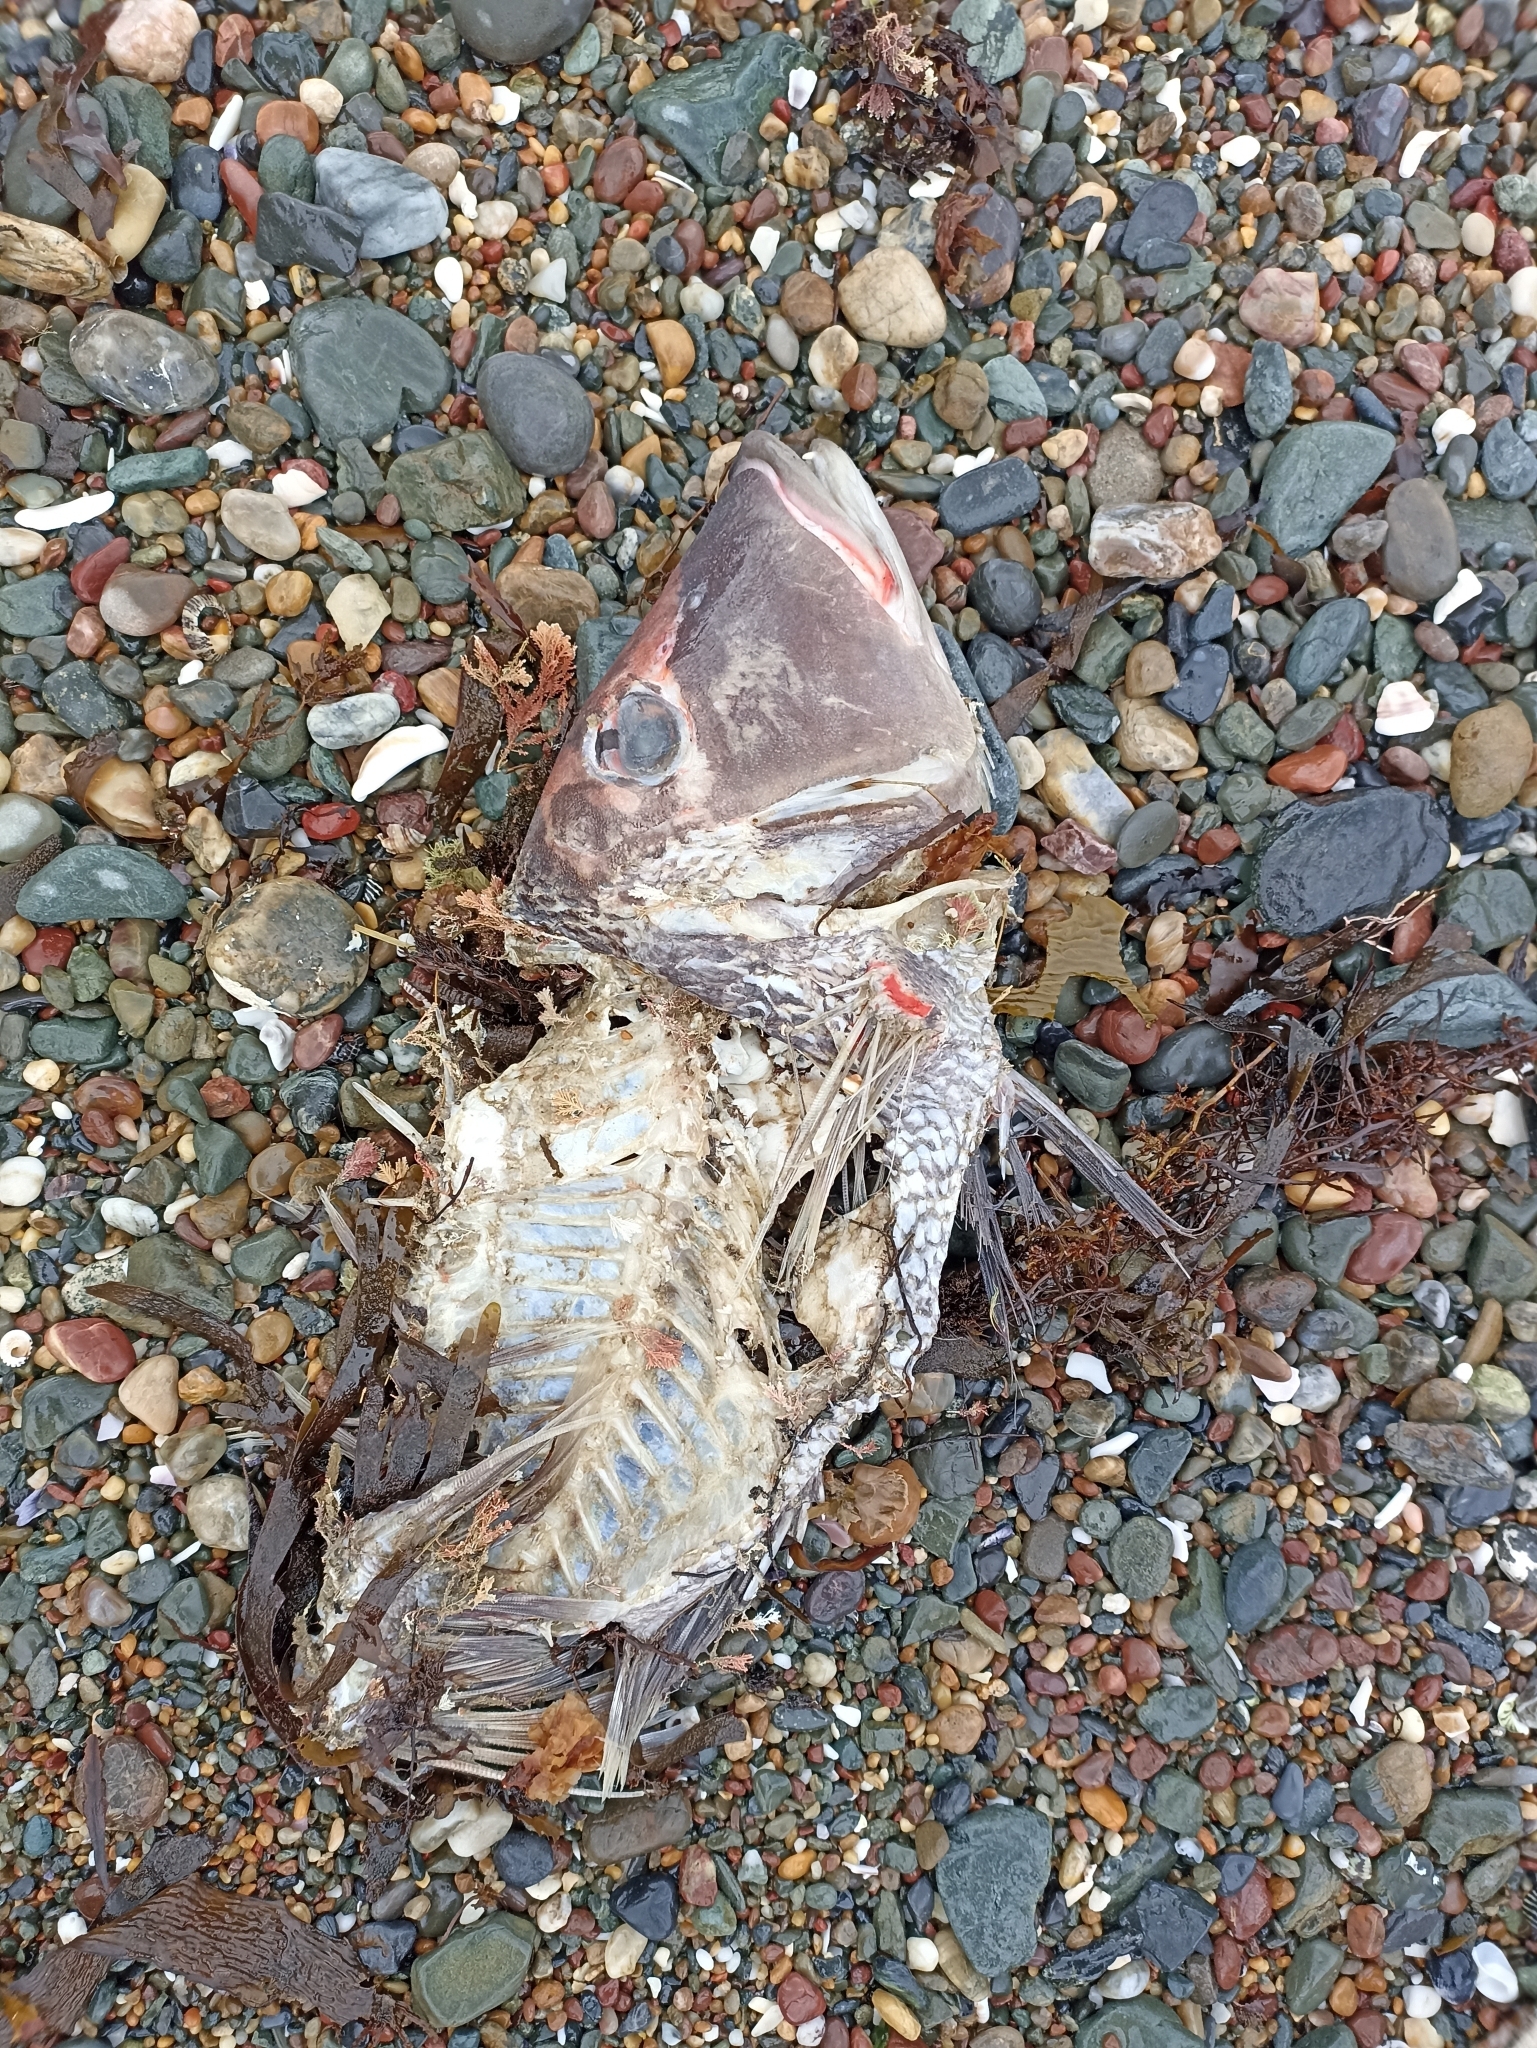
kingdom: Animalia
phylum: Chordata
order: Perciformes
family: Lethrinidae
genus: Lethrinus
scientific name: Lethrinus miniatus
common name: Trumpet emperor
